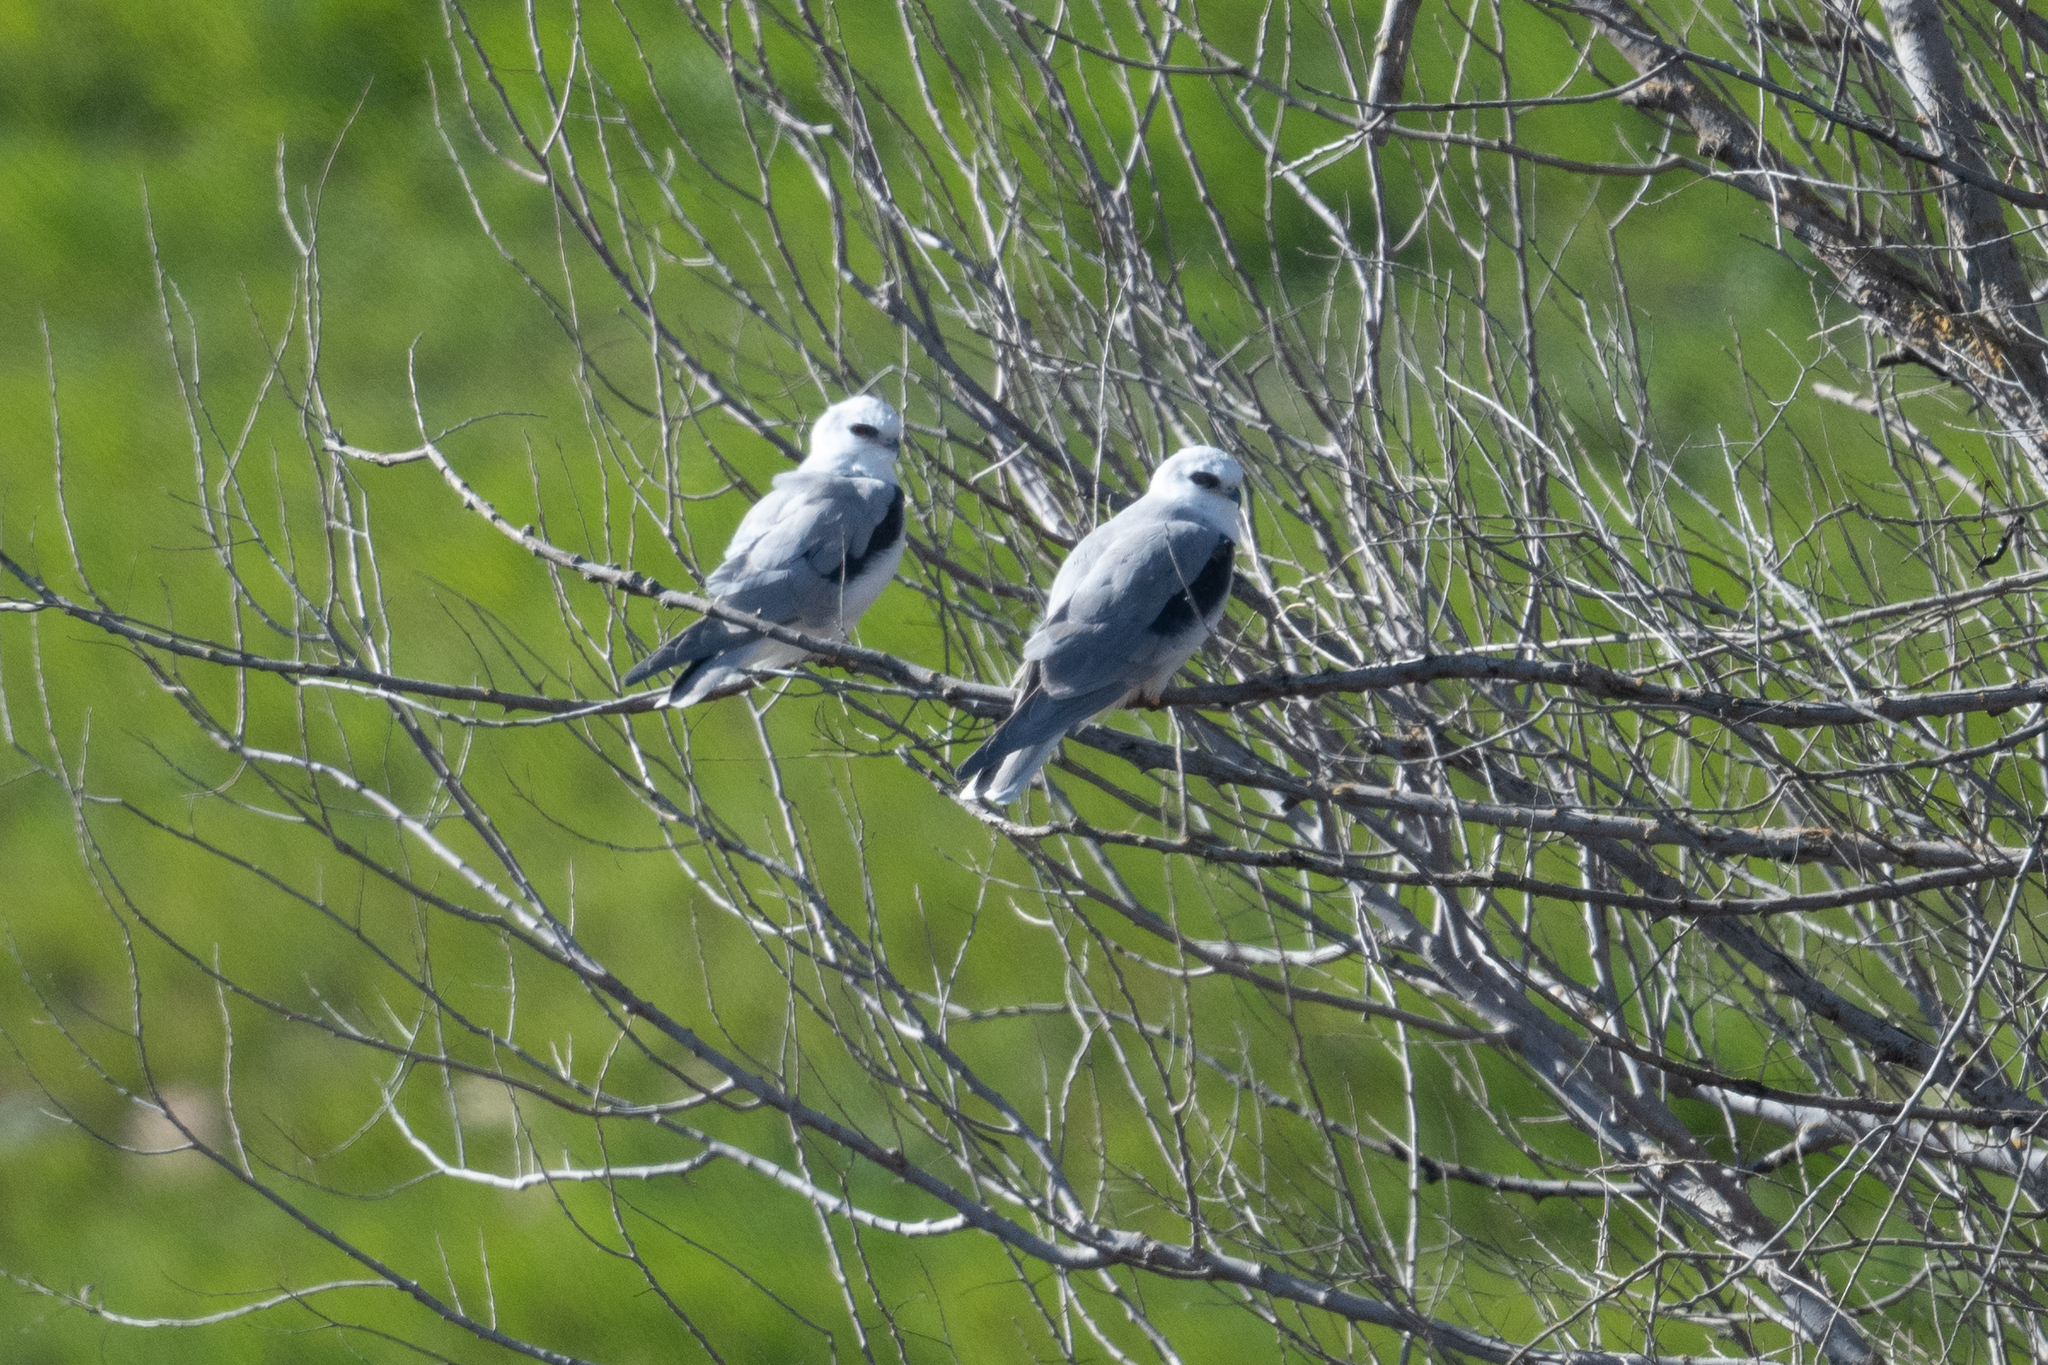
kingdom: Animalia
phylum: Chordata
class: Aves
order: Accipitriformes
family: Accipitridae
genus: Elanus
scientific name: Elanus leucurus
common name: White-tailed kite
